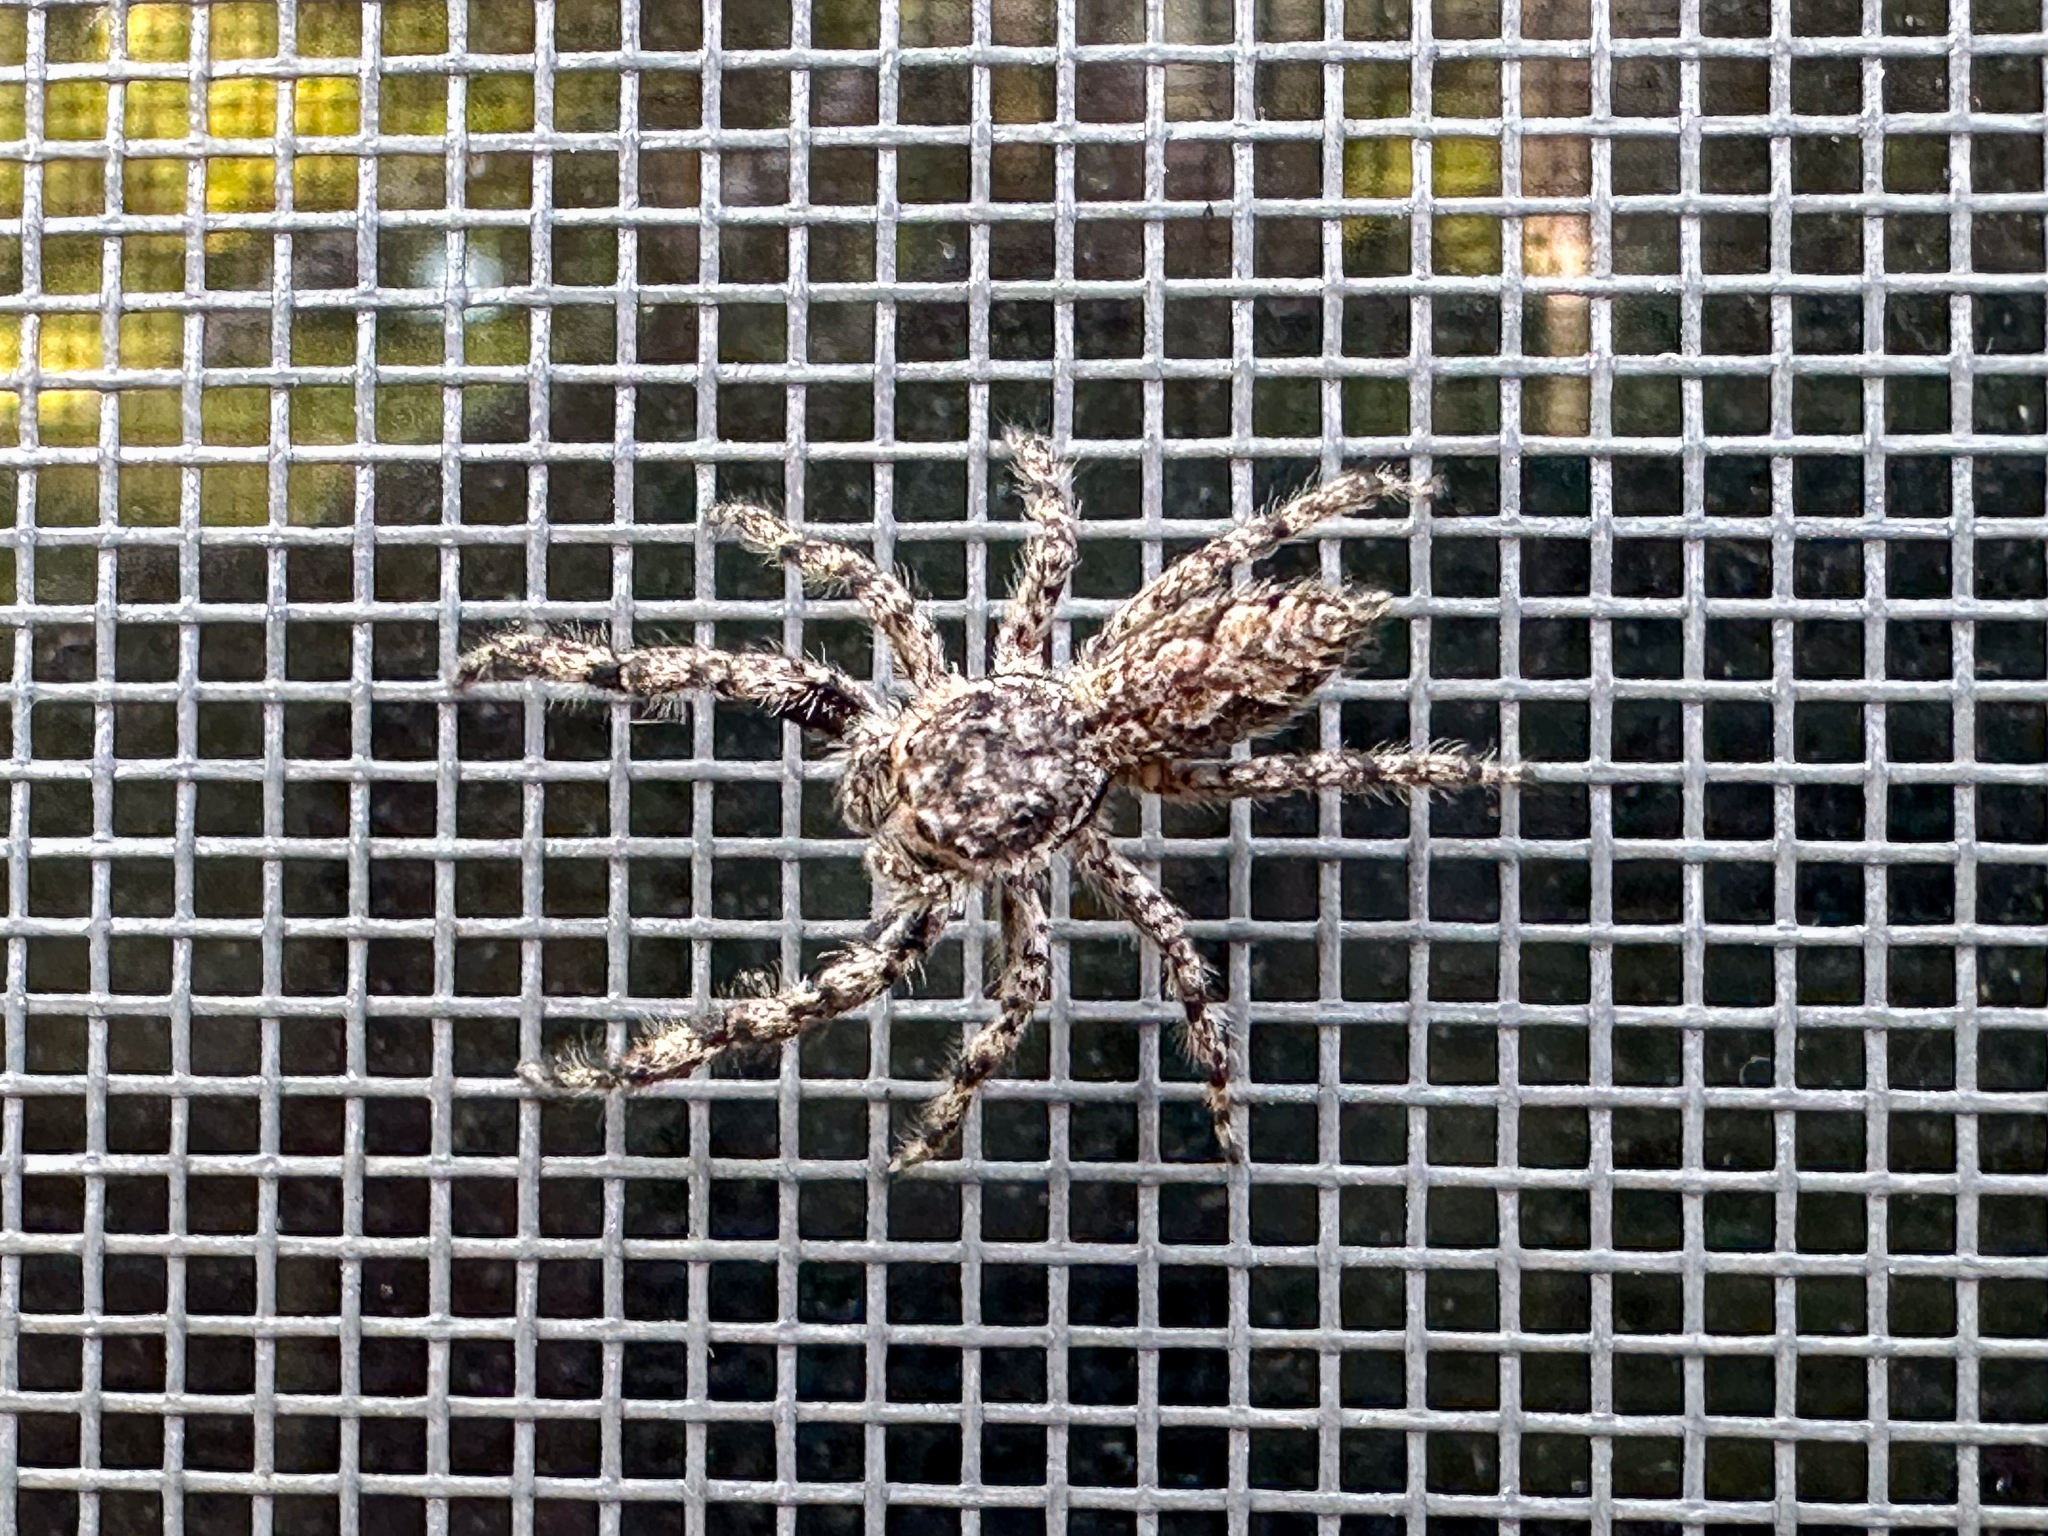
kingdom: Animalia
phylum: Arthropoda
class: Arachnida
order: Araneae
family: Salticidae
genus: Platycryptus
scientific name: Platycryptus undatus
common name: Tan jumping spider
